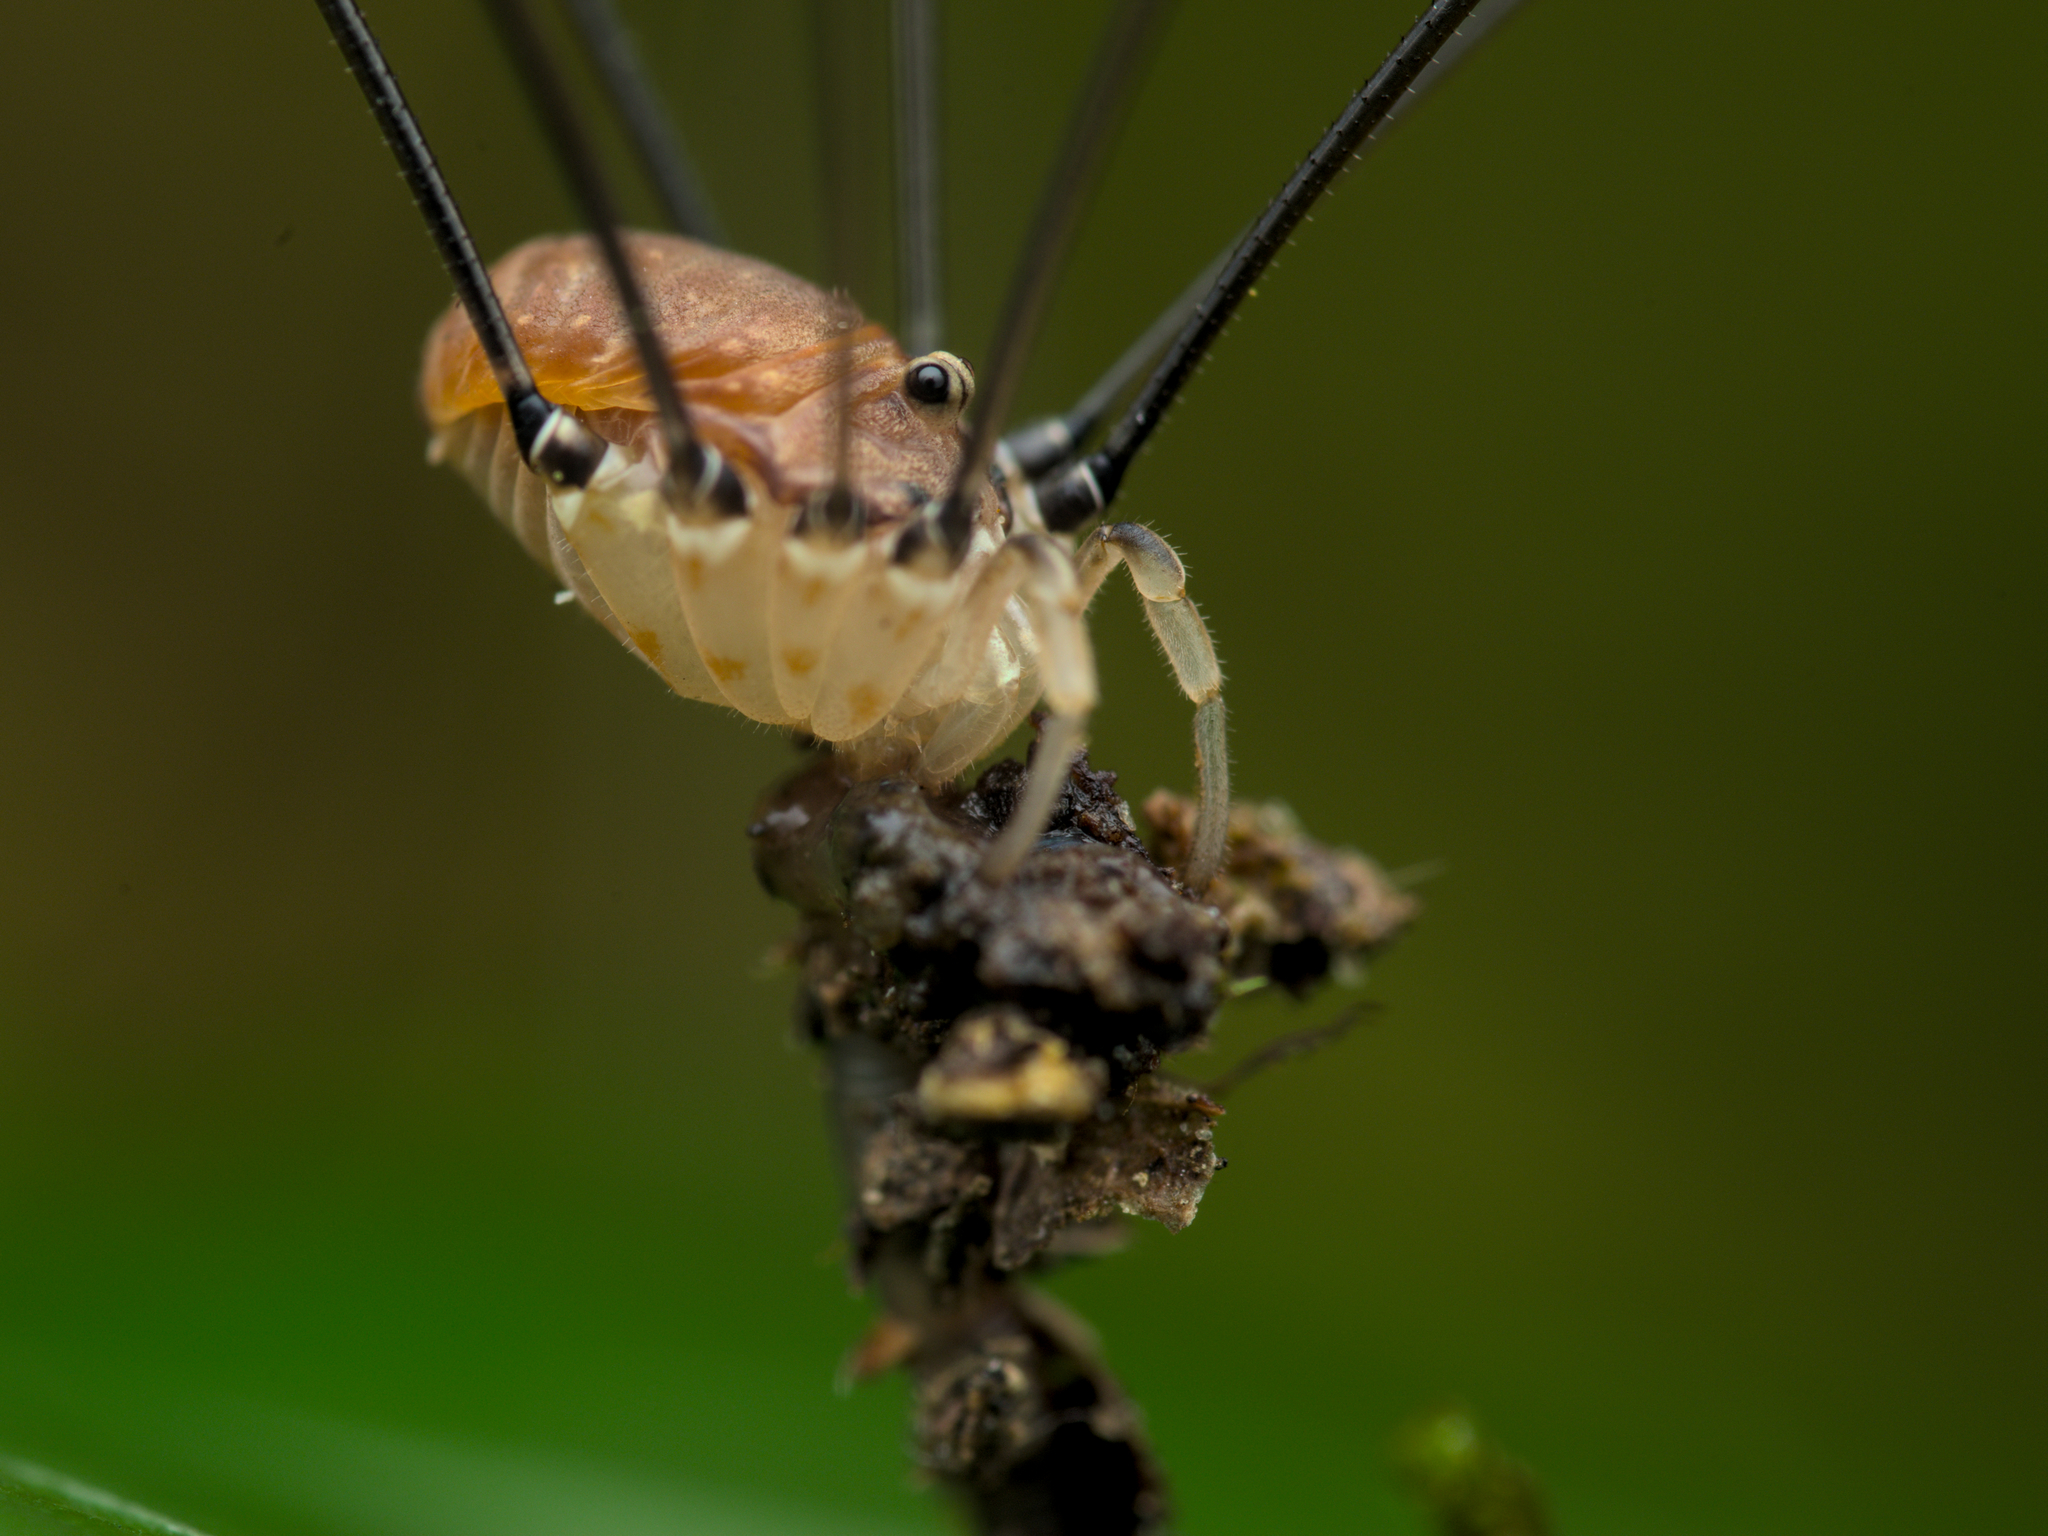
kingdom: Animalia
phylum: Arthropoda
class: Arachnida
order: Opiliones
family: Sclerosomatidae
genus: Leiobunum
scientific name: Leiobunum blackwalli
